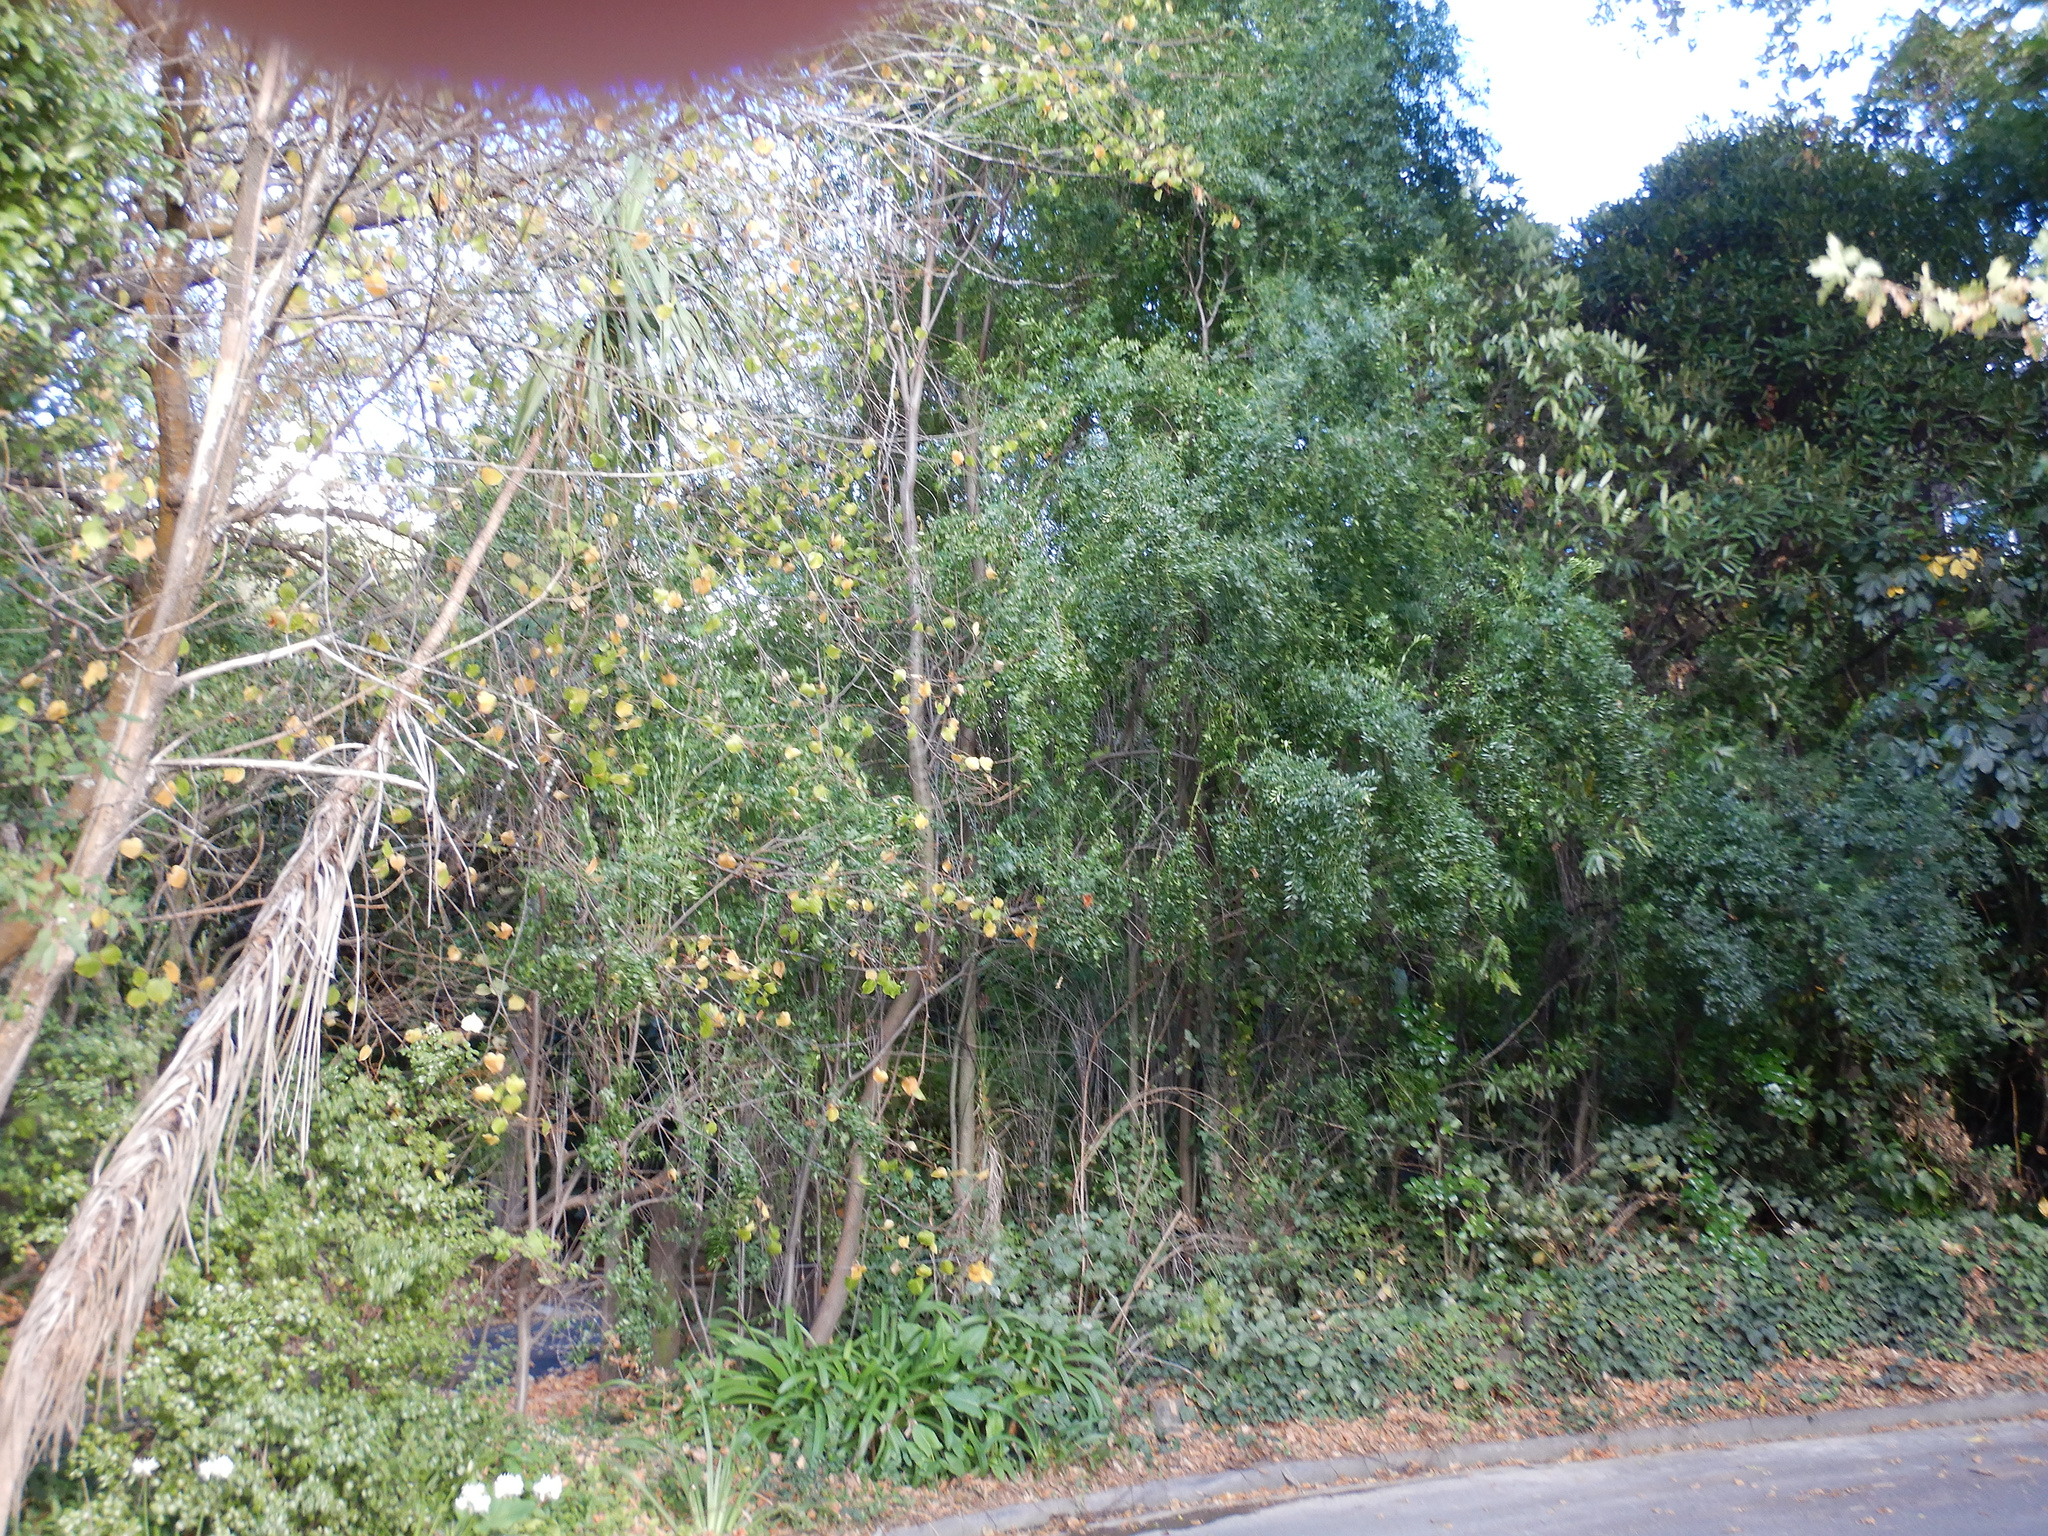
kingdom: Plantae
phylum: Tracheophyta
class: Magnoliopsida
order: Celastrales
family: Celastraceae
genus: Maytenus
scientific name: Maytenus boaria
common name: Mayten
